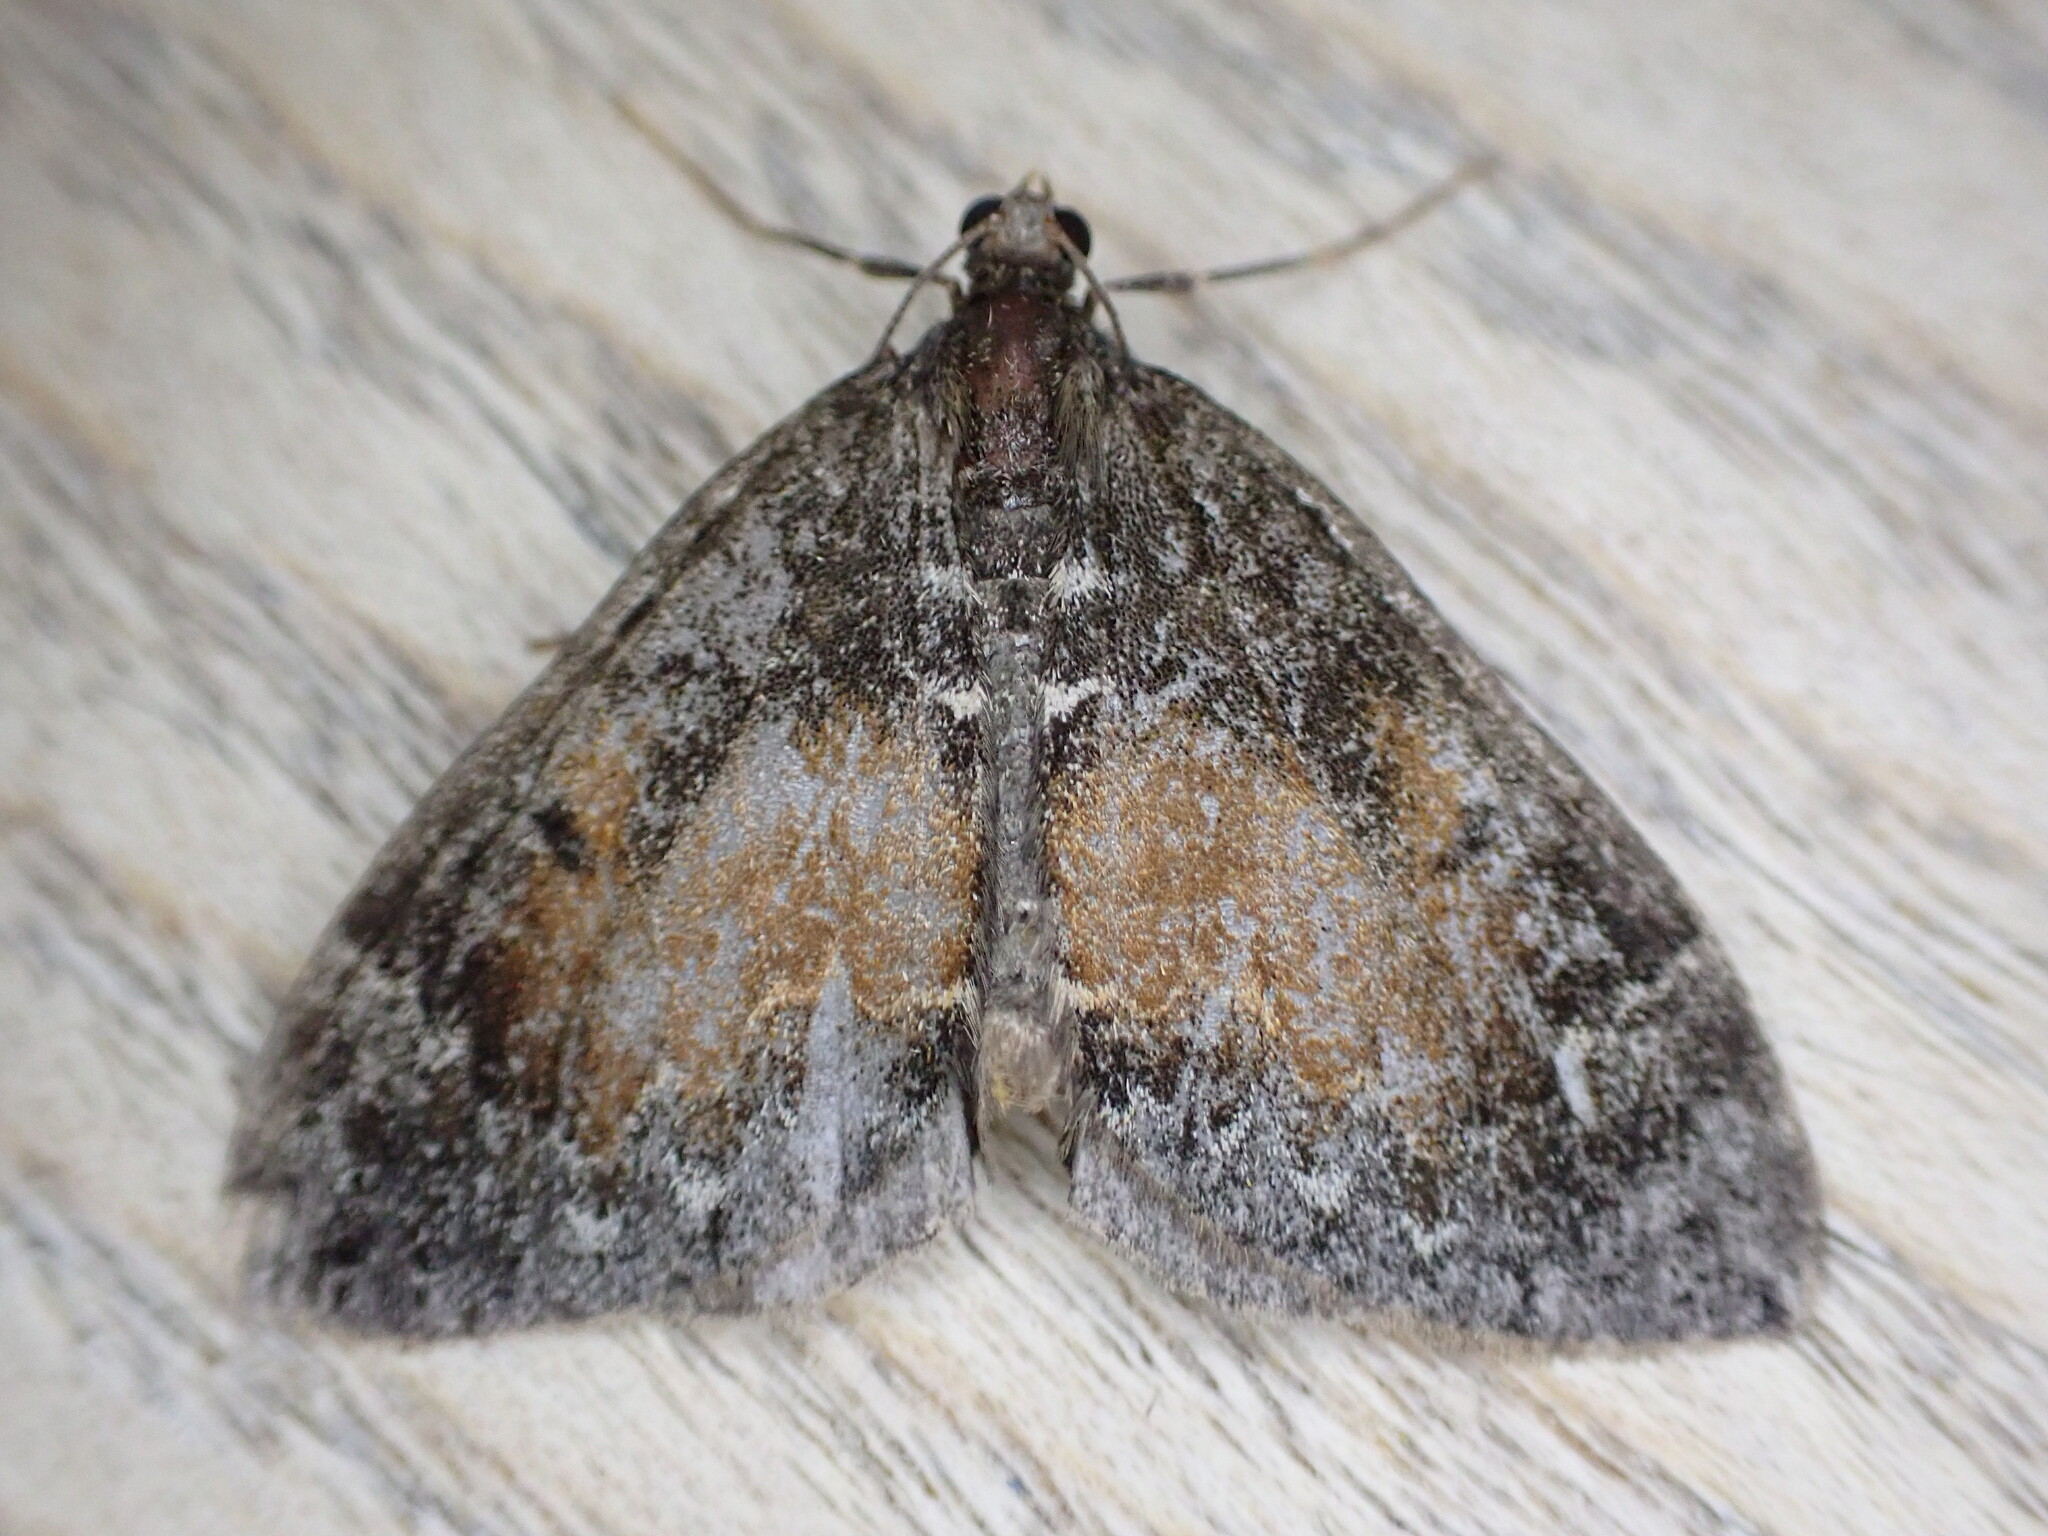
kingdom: Animalia
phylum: Arthropoda
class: Insecta
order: Lepidoptera
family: Geometridae
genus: Dysstroma
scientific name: Dysstroma truncata
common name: Common marbled carpet
